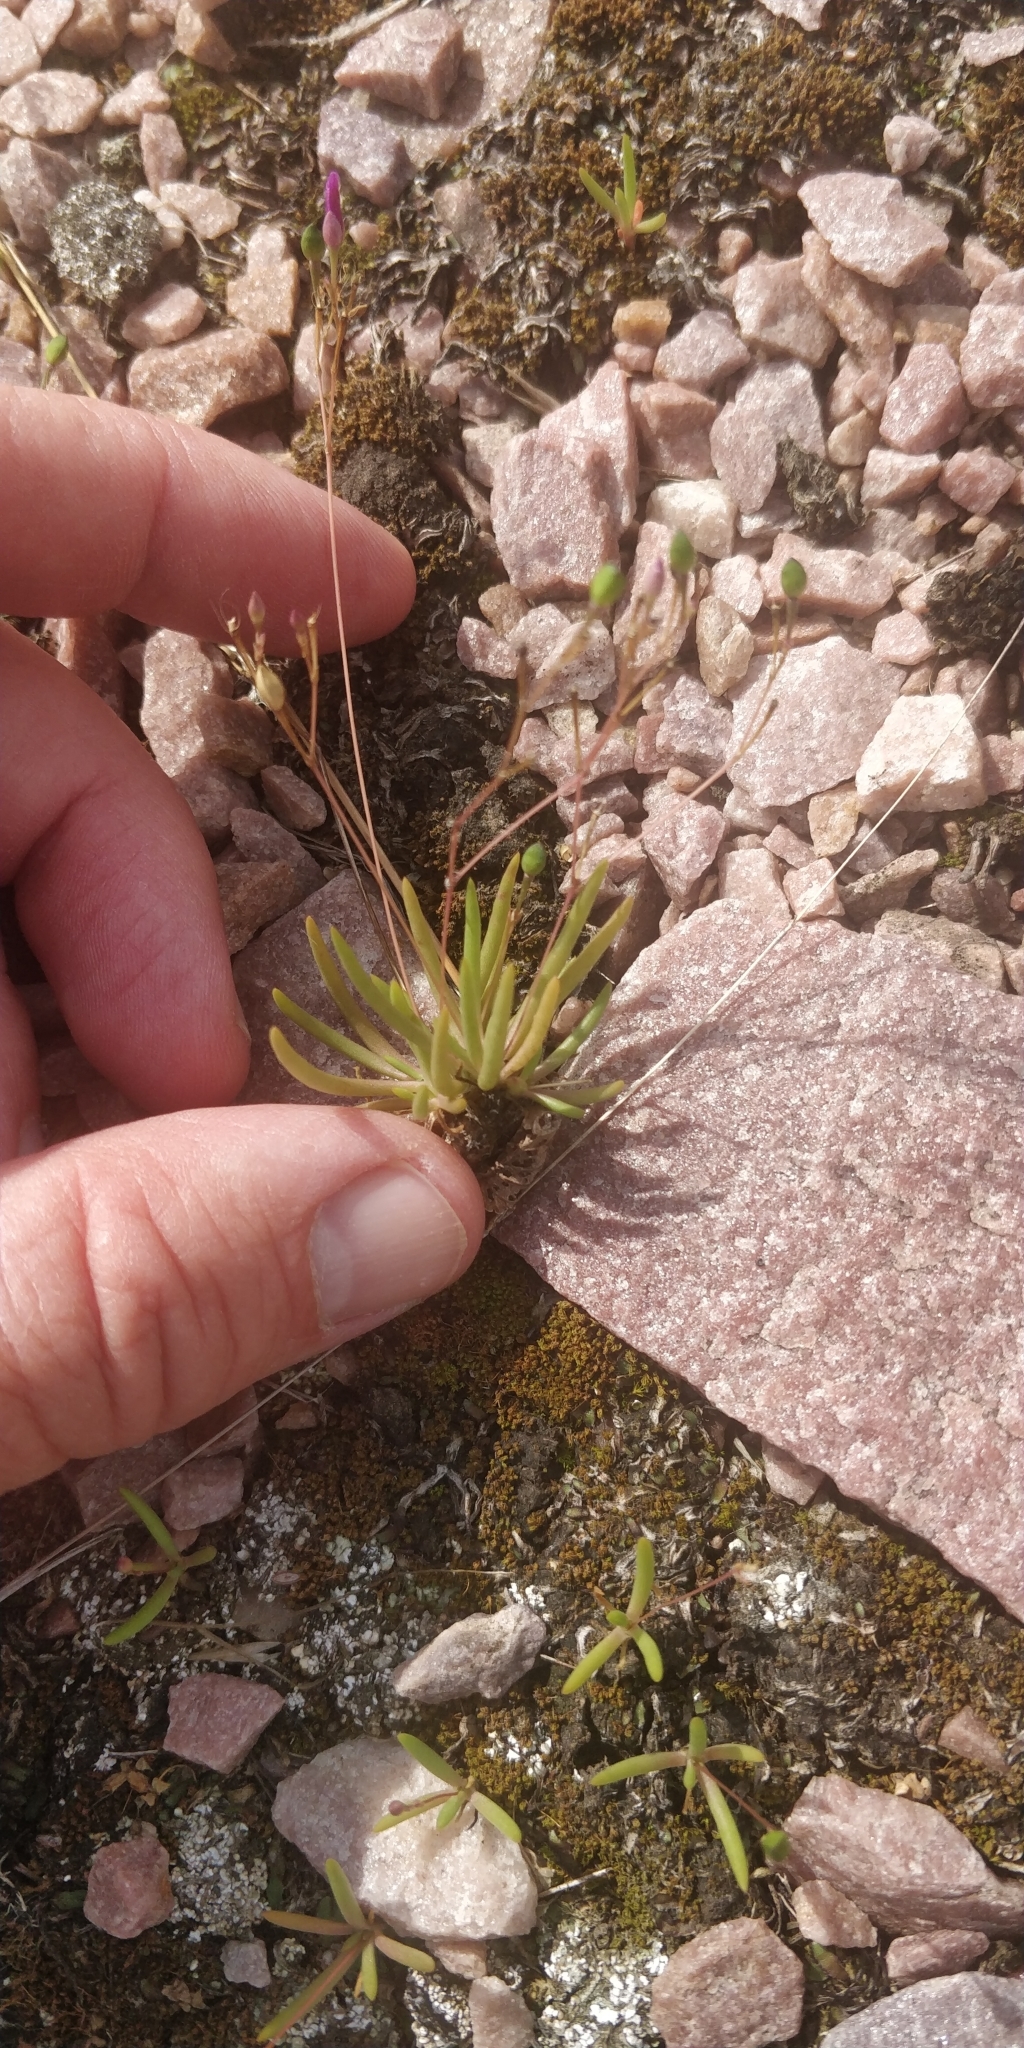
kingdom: Plantae
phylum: Tracheophyta
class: Magnoliopsida
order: Caryophyllales
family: Montiaceae
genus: Phemeranthus
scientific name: Phemeranthus parviflorus
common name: Sunbright
